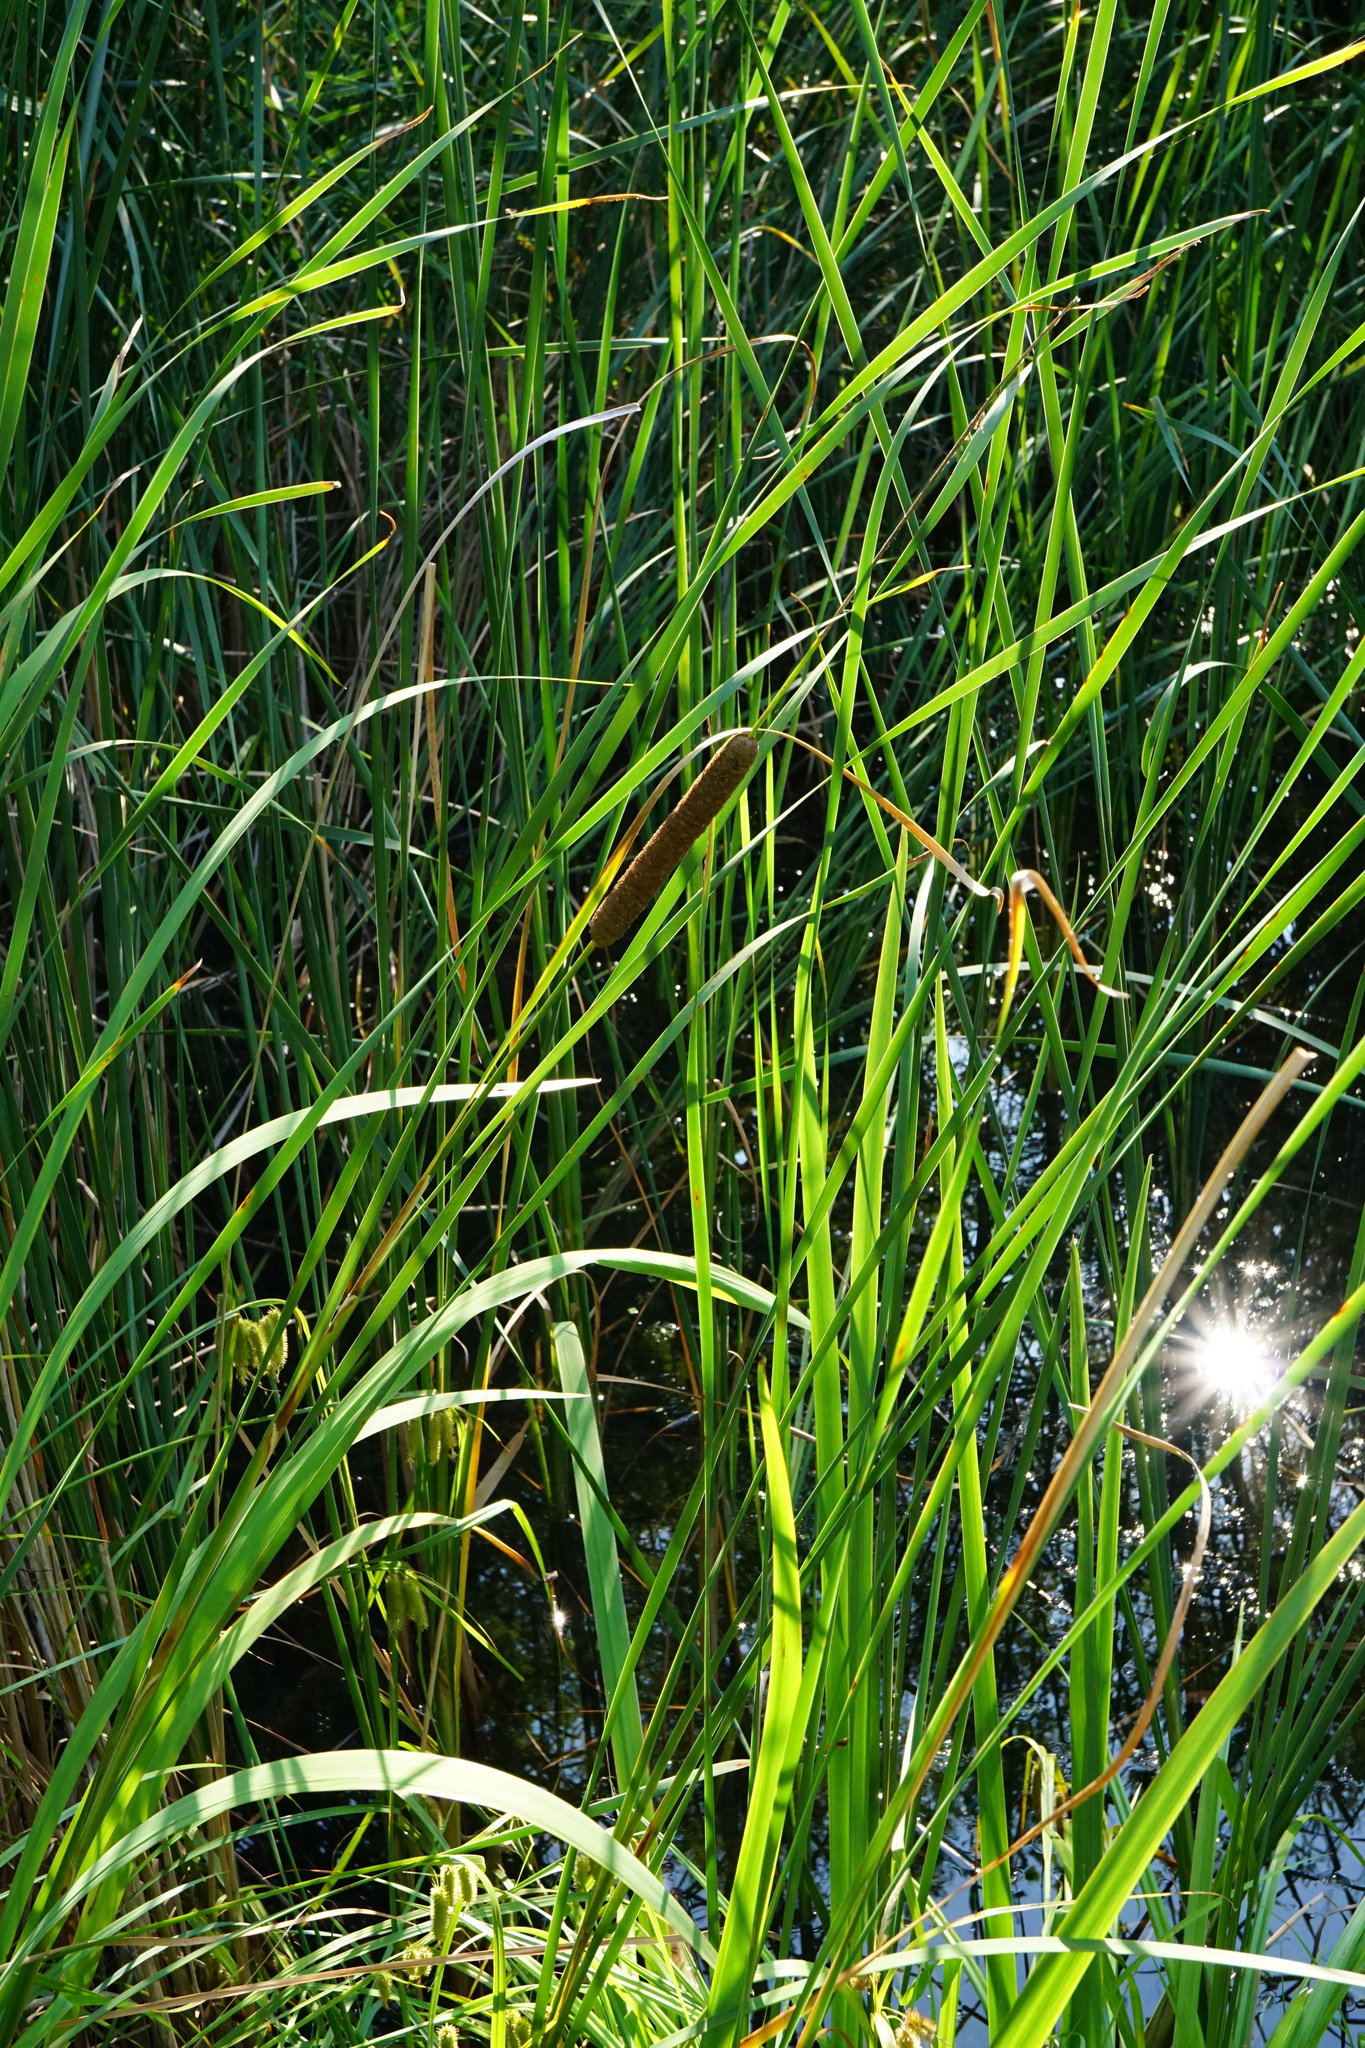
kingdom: Plantae
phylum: Tracheophyta
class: Liliopsida
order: Poales
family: Typhaceae
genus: Typha
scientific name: Typha angustifolia
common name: Lesser bulrush
